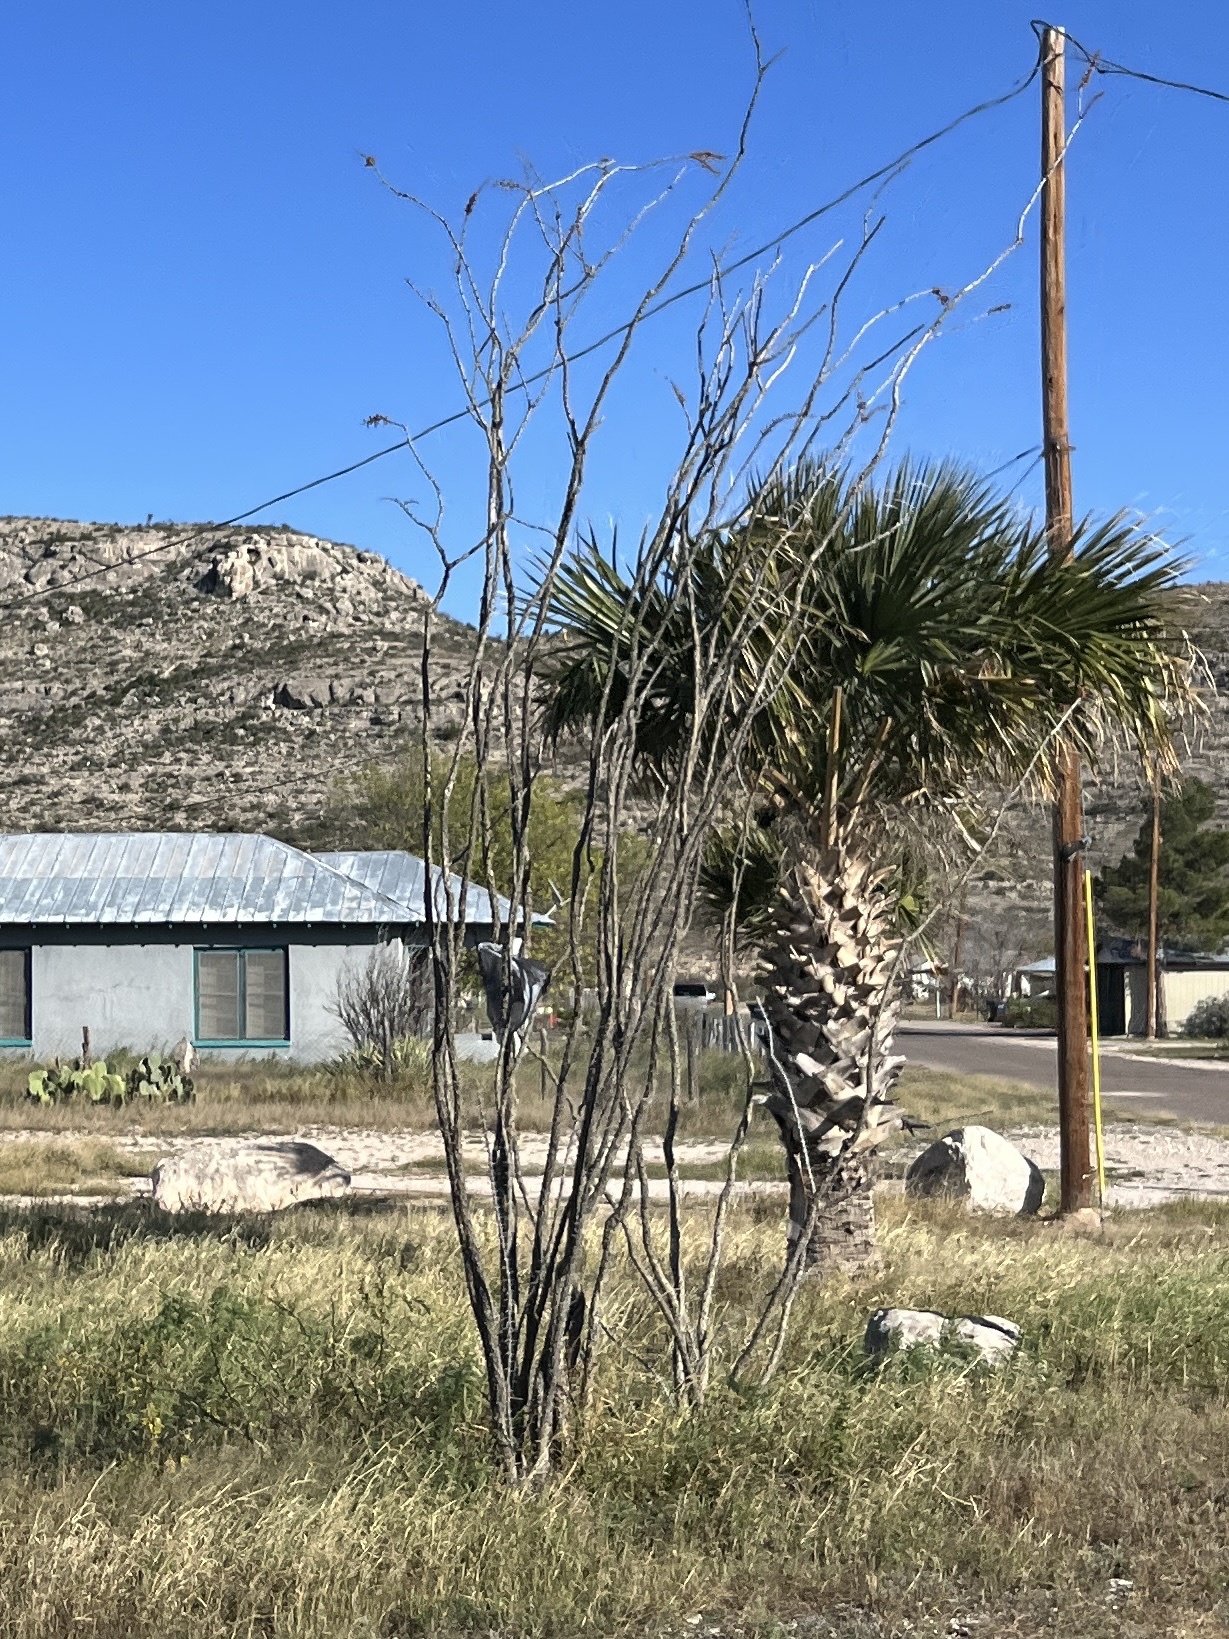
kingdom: Plantae
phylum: Tracheophyta
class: Magnoliopsida
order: Ericales
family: Fouquieriaceae
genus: Fouquieria
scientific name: Fouquieria splendens
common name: Vine-cactus
